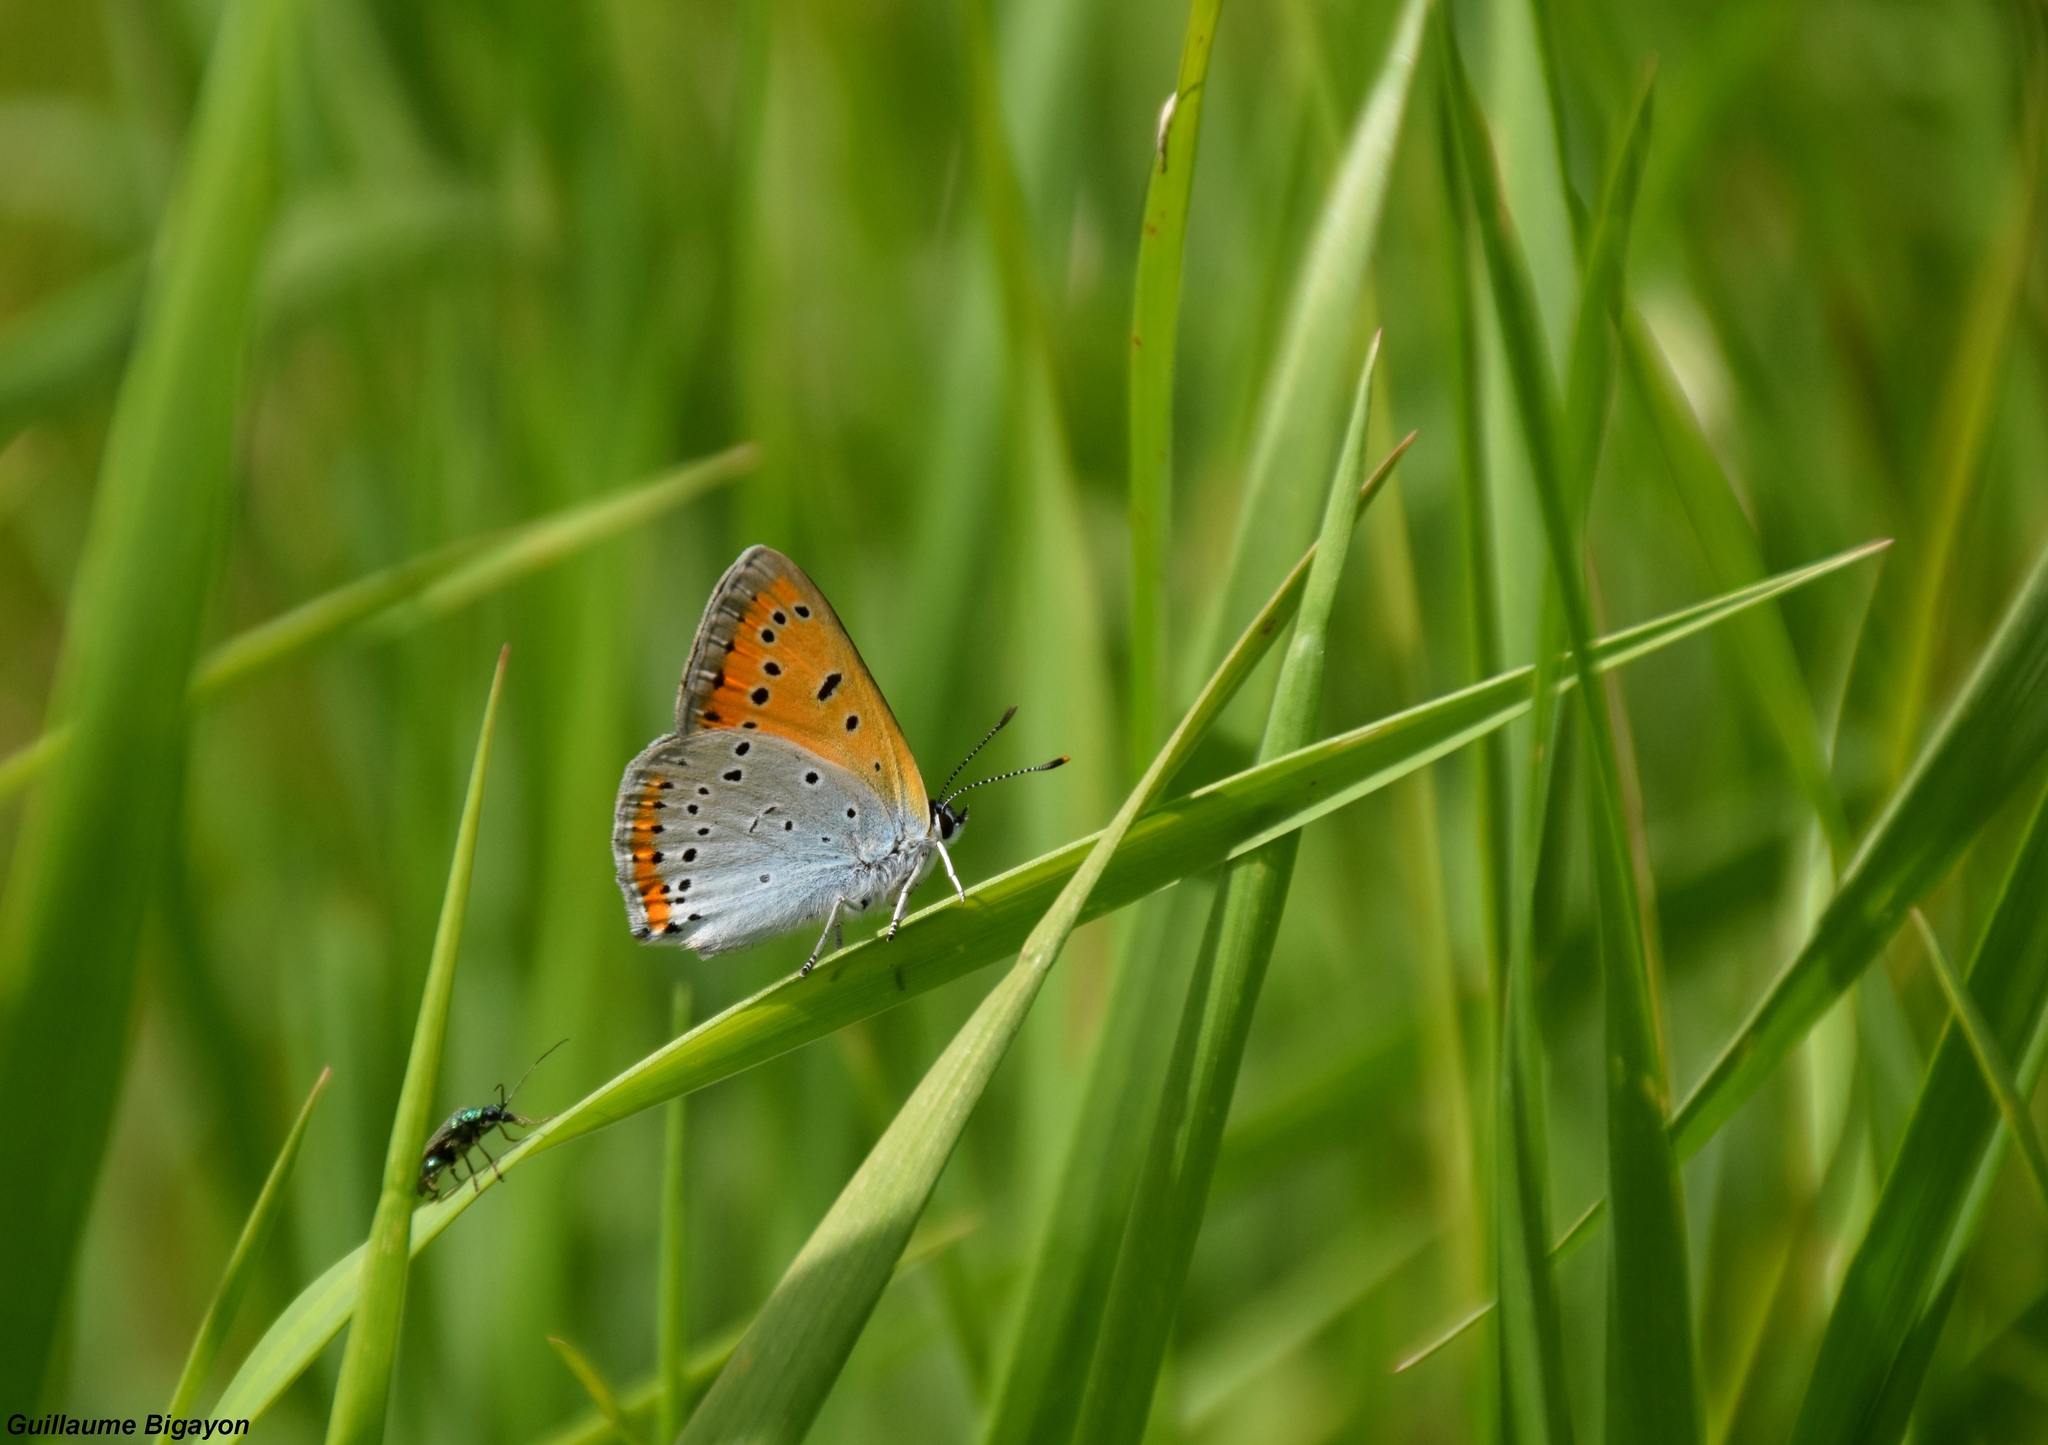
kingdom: Animalia
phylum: Arthropoda
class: Insecta
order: Lepidoptera
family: Lycaenidae
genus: Lycaena
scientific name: Lycaena dispar
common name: Large copper
